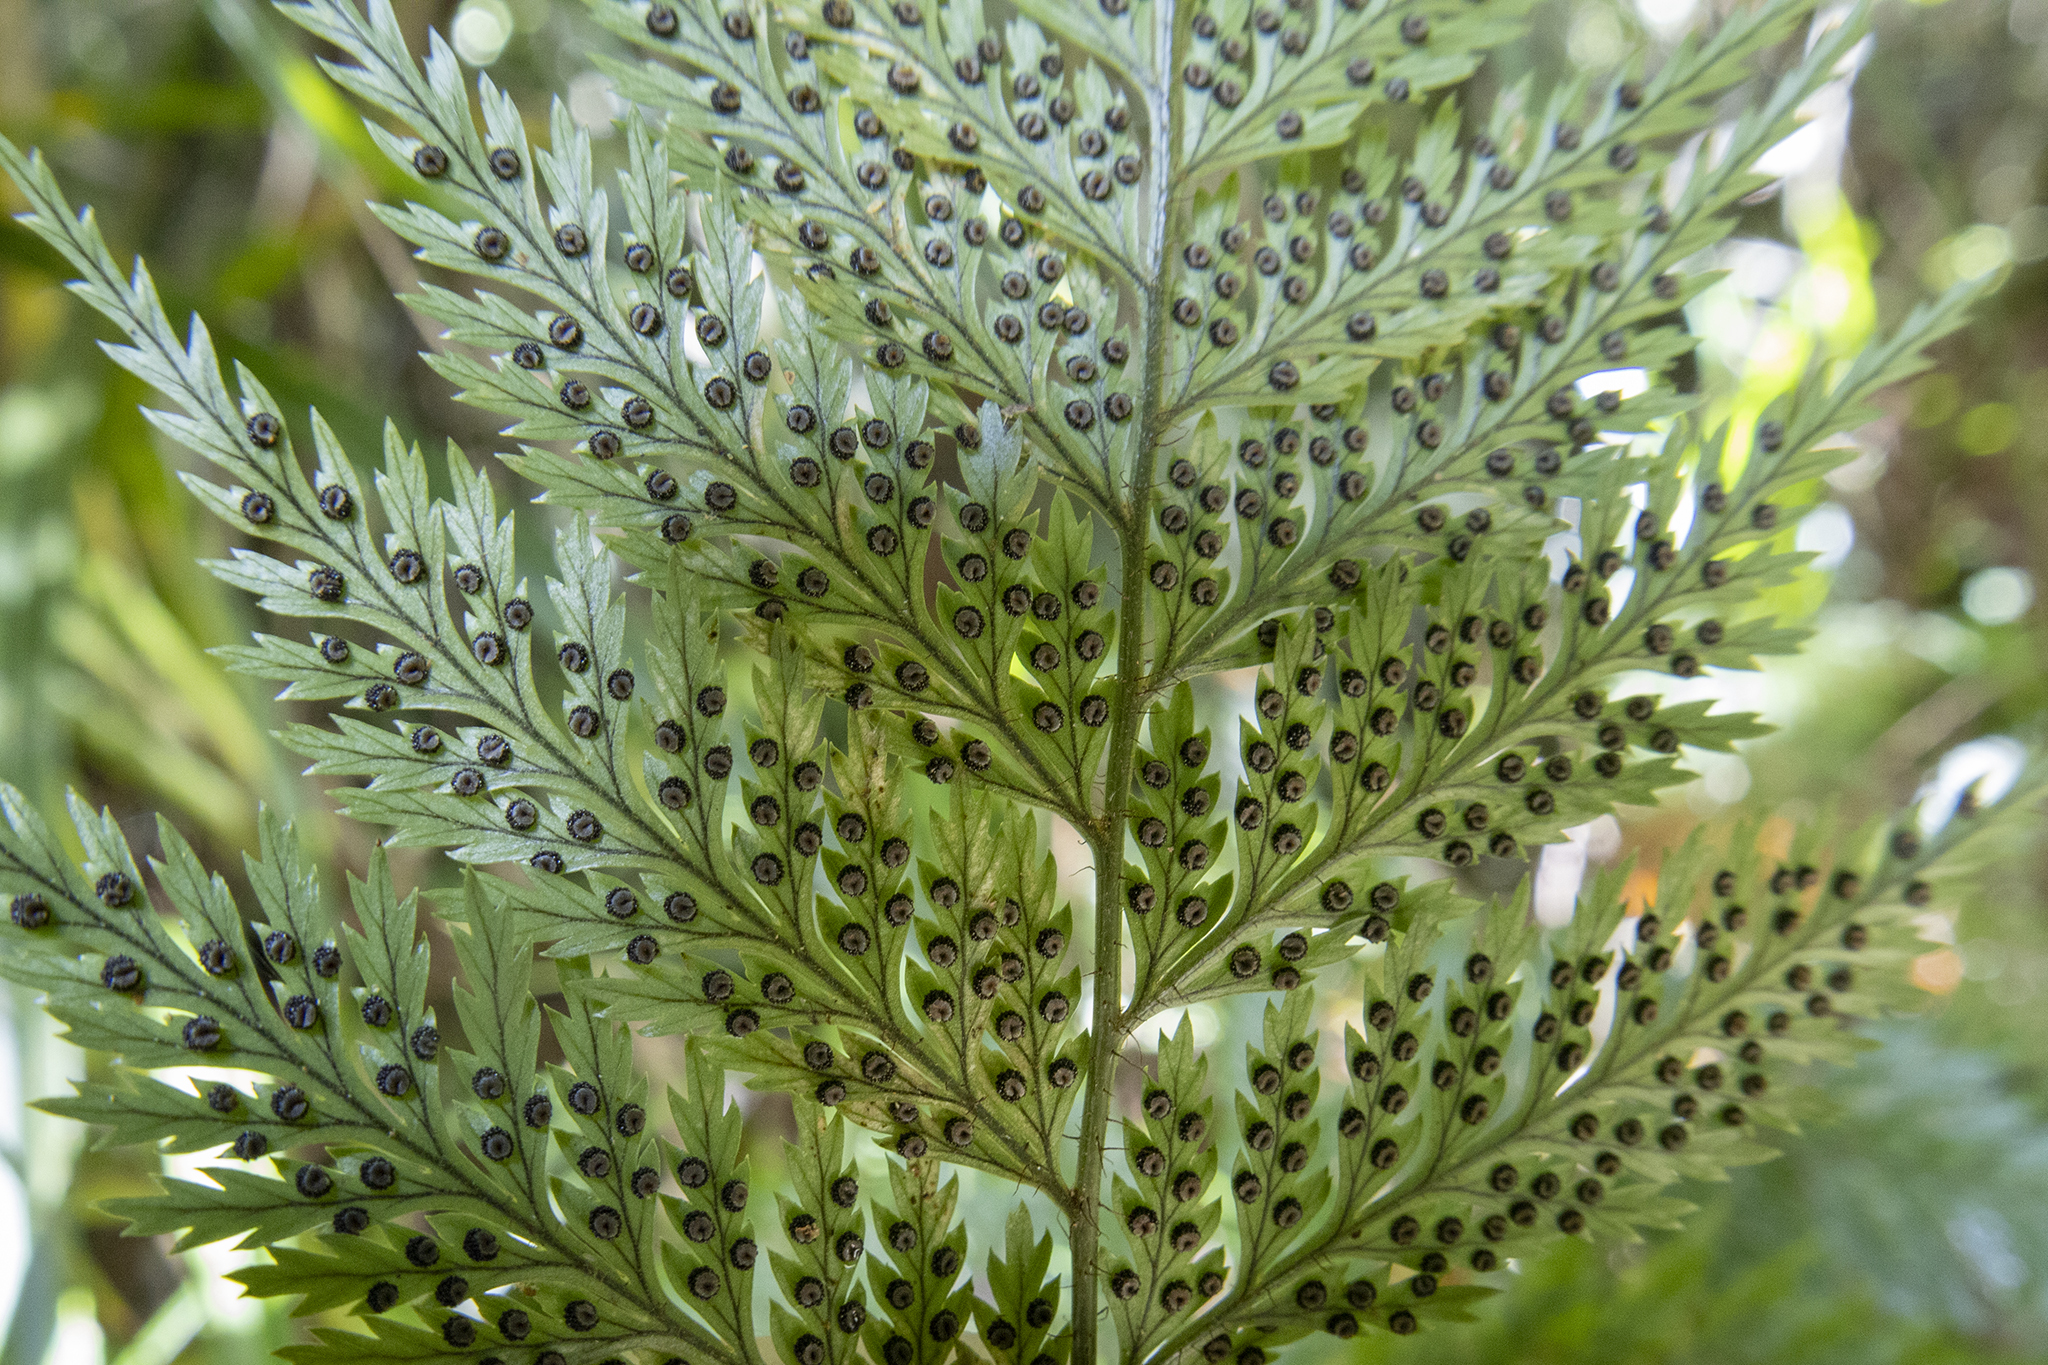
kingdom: Plantae
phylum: Tracheophyta
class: Polypodiopsida
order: Polypodiales
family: Dryopteridaceae
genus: Lastreopsis
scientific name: Lastreopsis hispida
